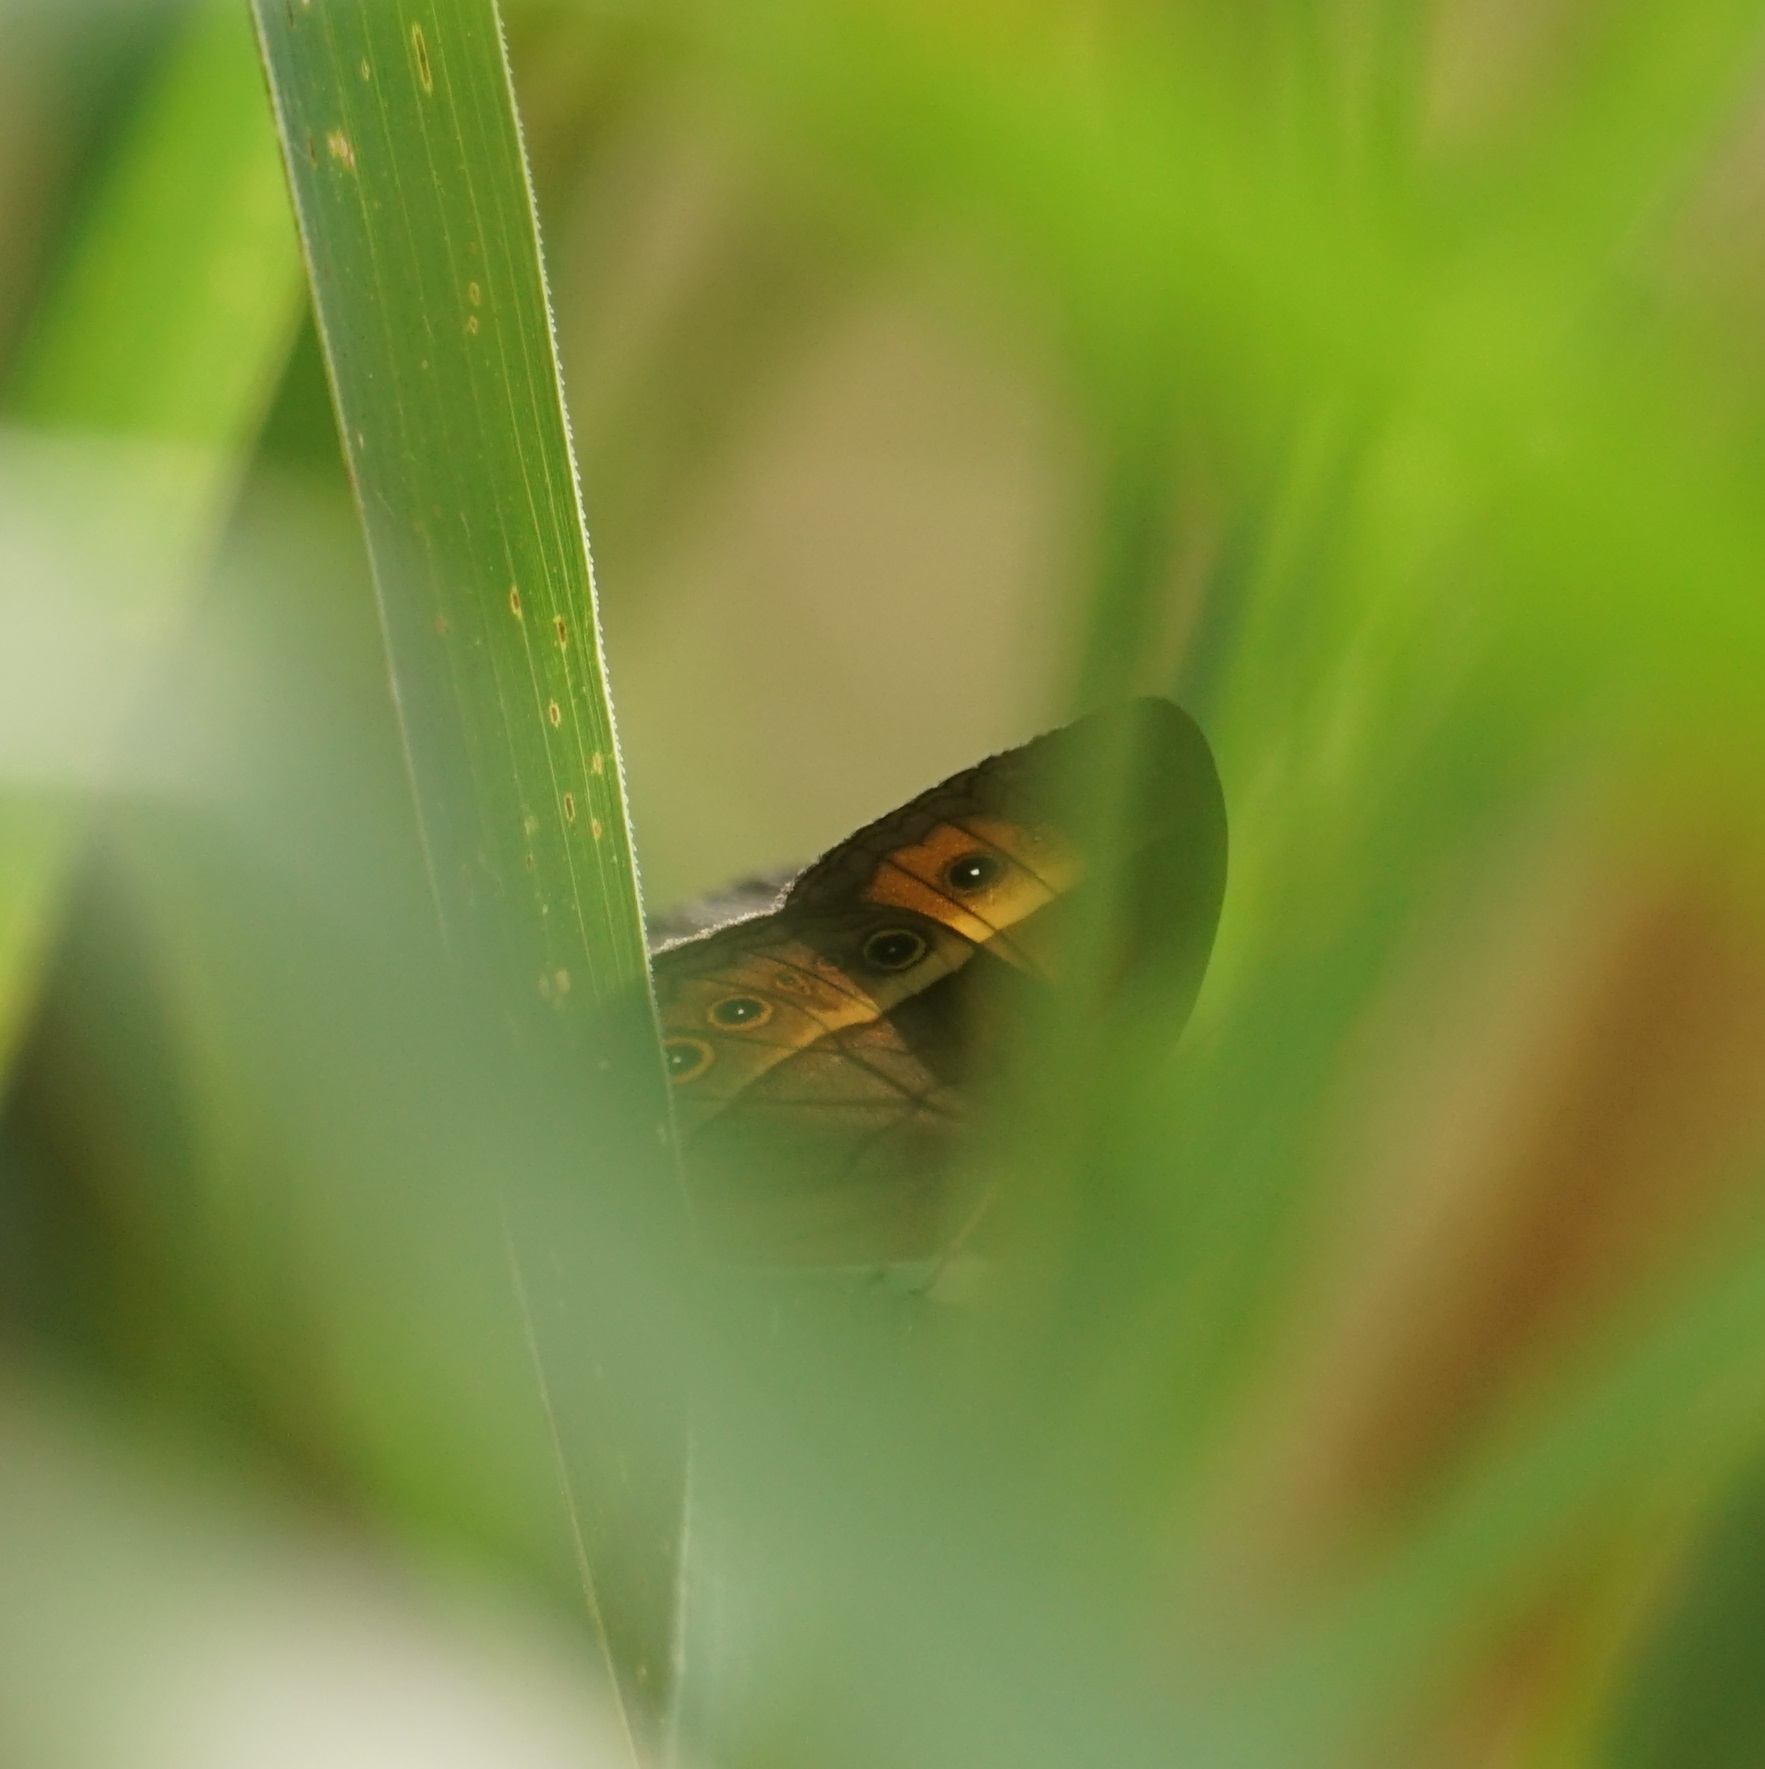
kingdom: Animalia
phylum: Arthropoda
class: Insecta
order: Lepidoptera
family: Nymphalidae
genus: Mycalesis
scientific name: Mycalesis terminus
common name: Orange bushbrown
